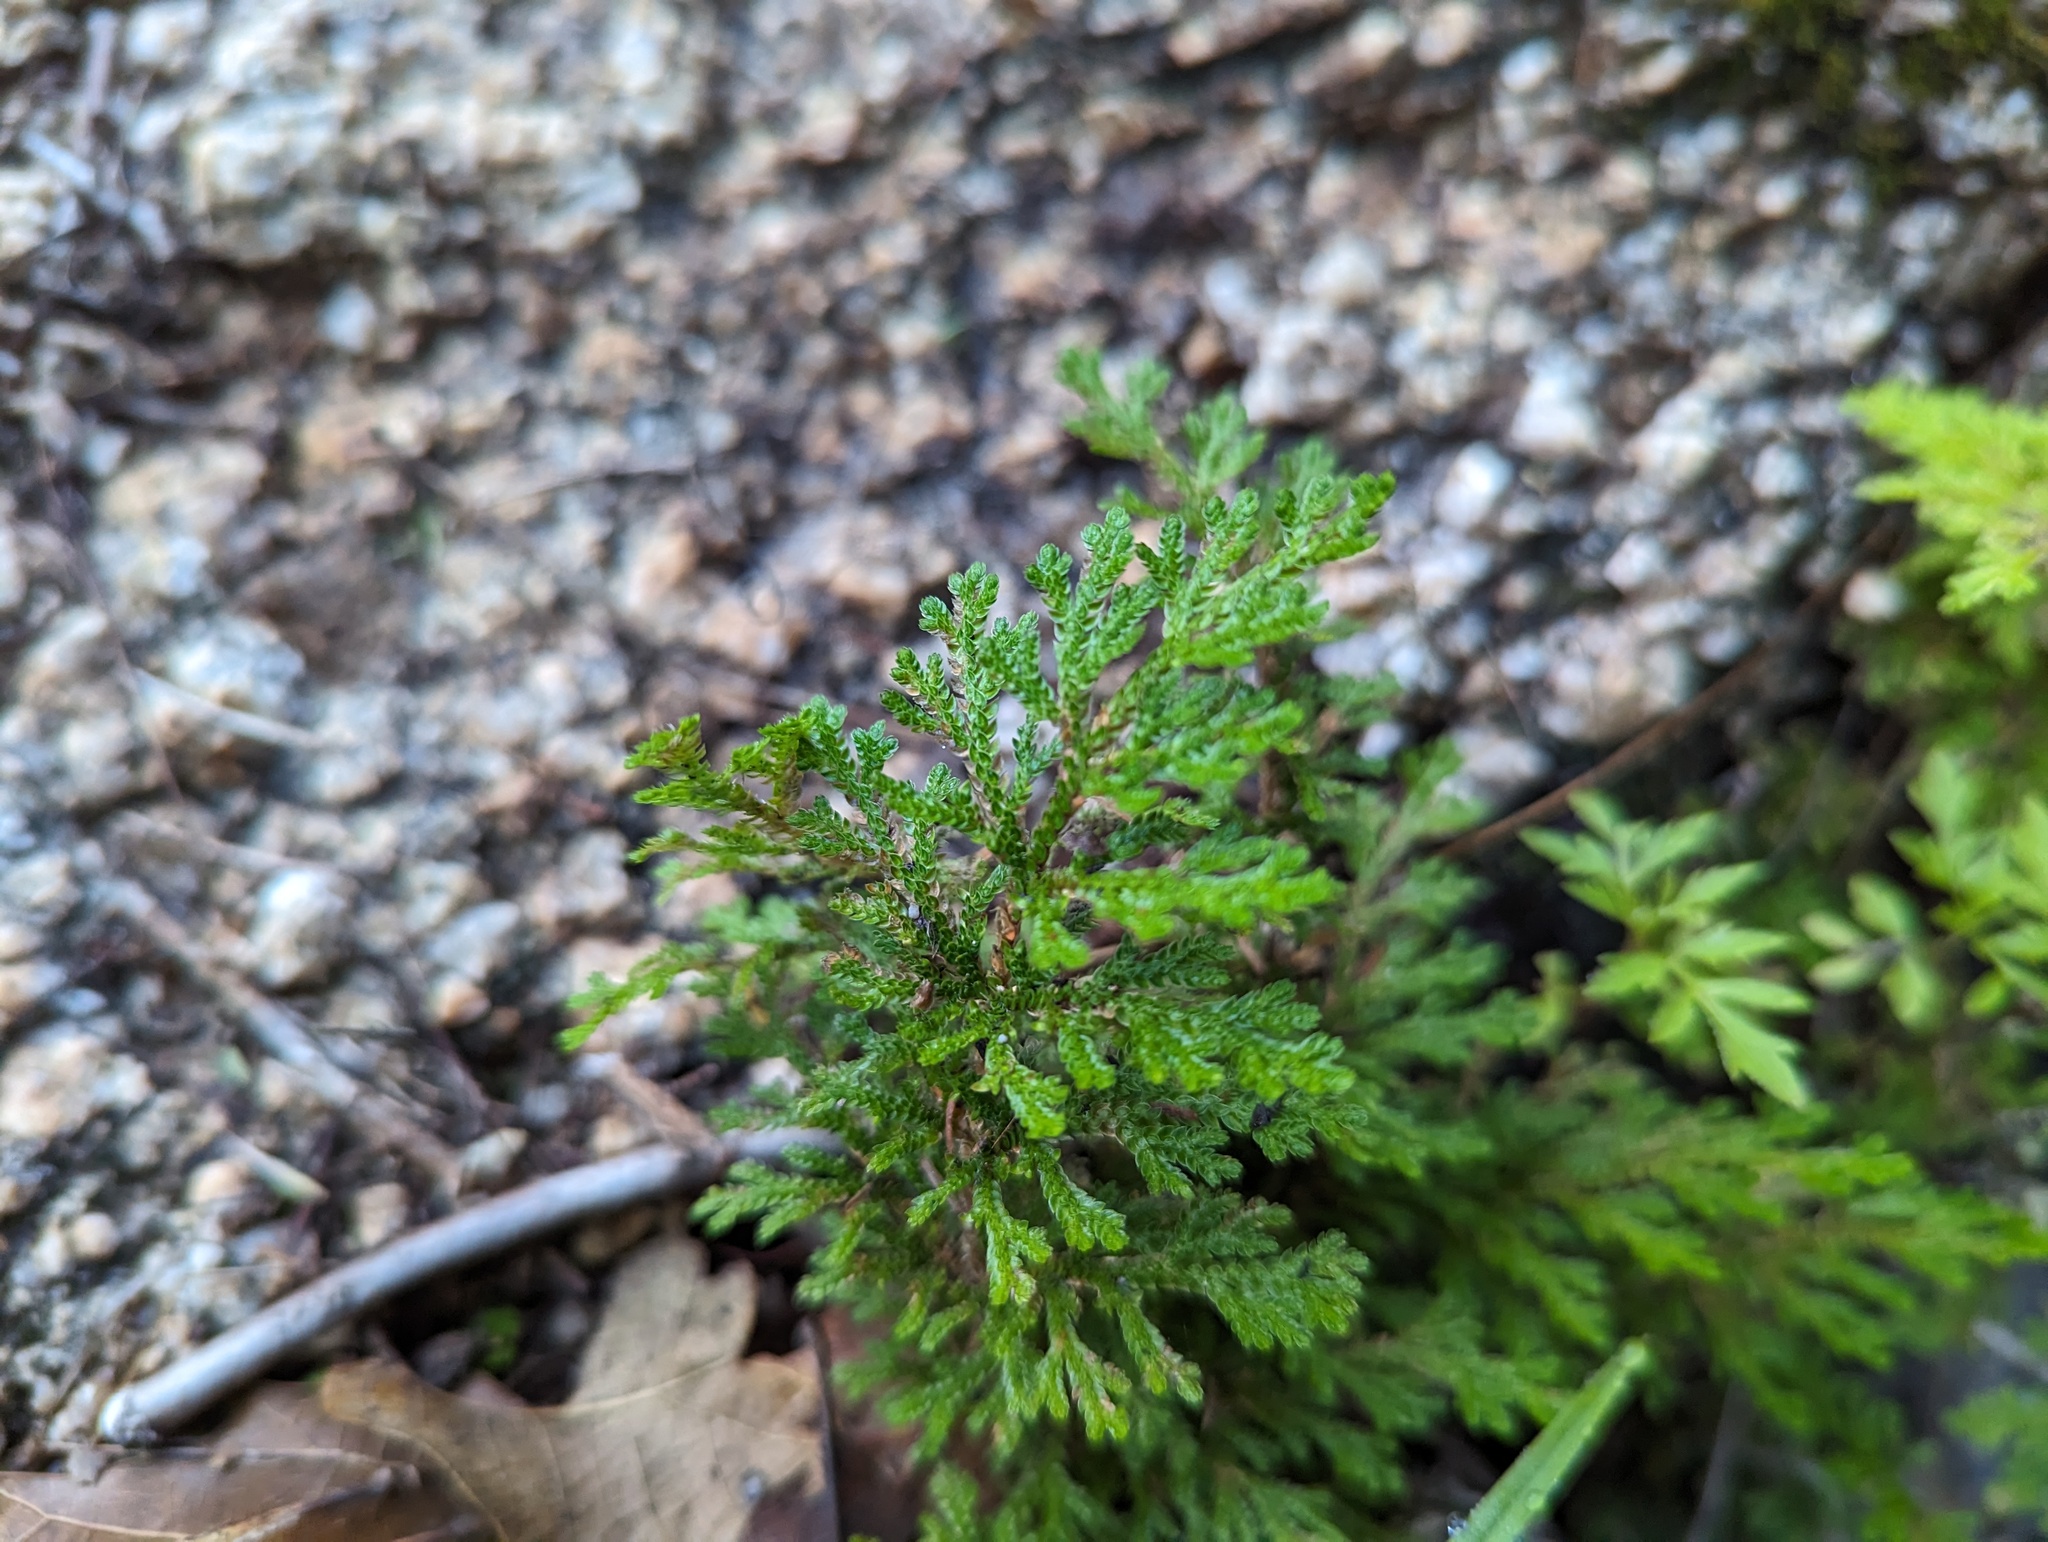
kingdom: Plantae
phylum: Tracheophyta
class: Lycopodiopsida
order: Selaginellales
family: Selaginellaceae
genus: Selaginella
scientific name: Selaginella pallescens
